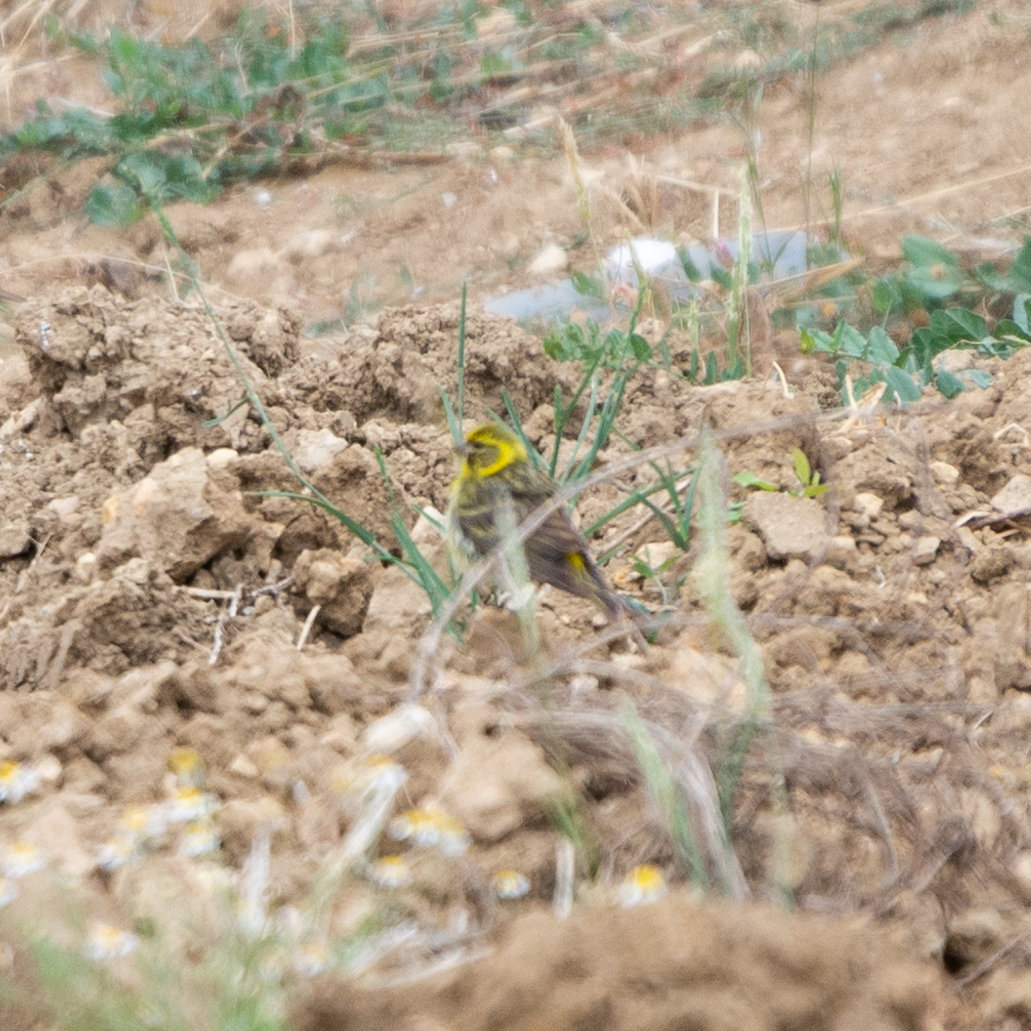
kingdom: Animalia
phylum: Chordata
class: Aves
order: Passeriformes
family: Fringillidae
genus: Serinus
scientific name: Serinus serinus
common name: European serin
